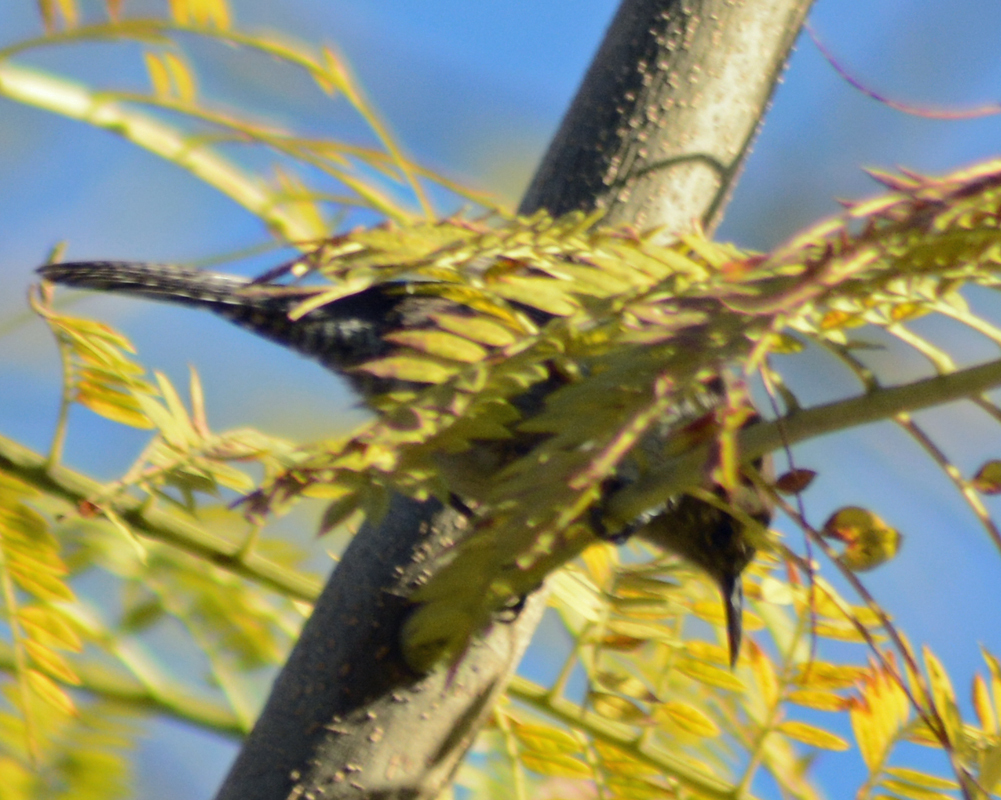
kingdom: Animalia
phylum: Chordata
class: Aves
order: Passeriformes
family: Troglodytidae
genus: Thryomanes
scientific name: Thryomanes bewickii
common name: Bewick's wren
